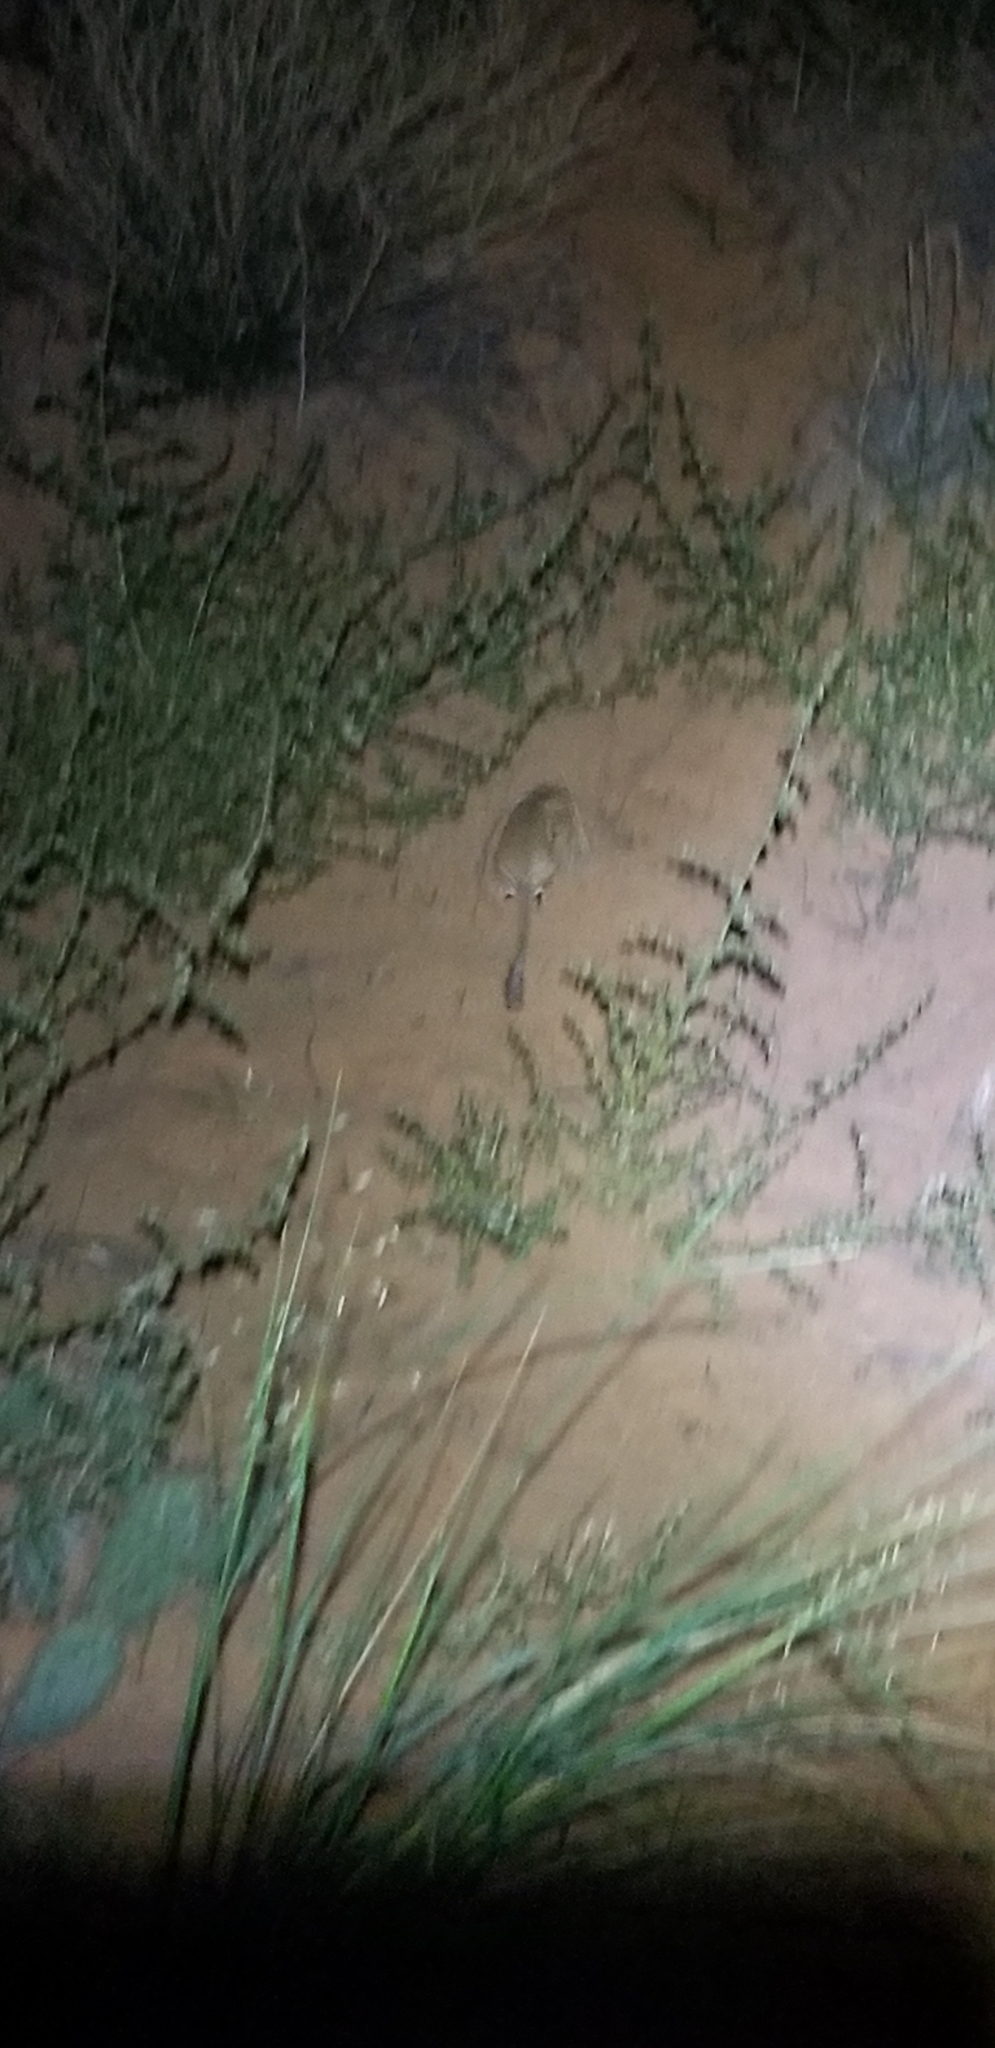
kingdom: Animalia
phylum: Chordata
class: Mammalia
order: Rodentia
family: Heteromyidae
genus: Dipodomys
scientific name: Dipodomys ordii
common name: Ord's kangaroo rat
